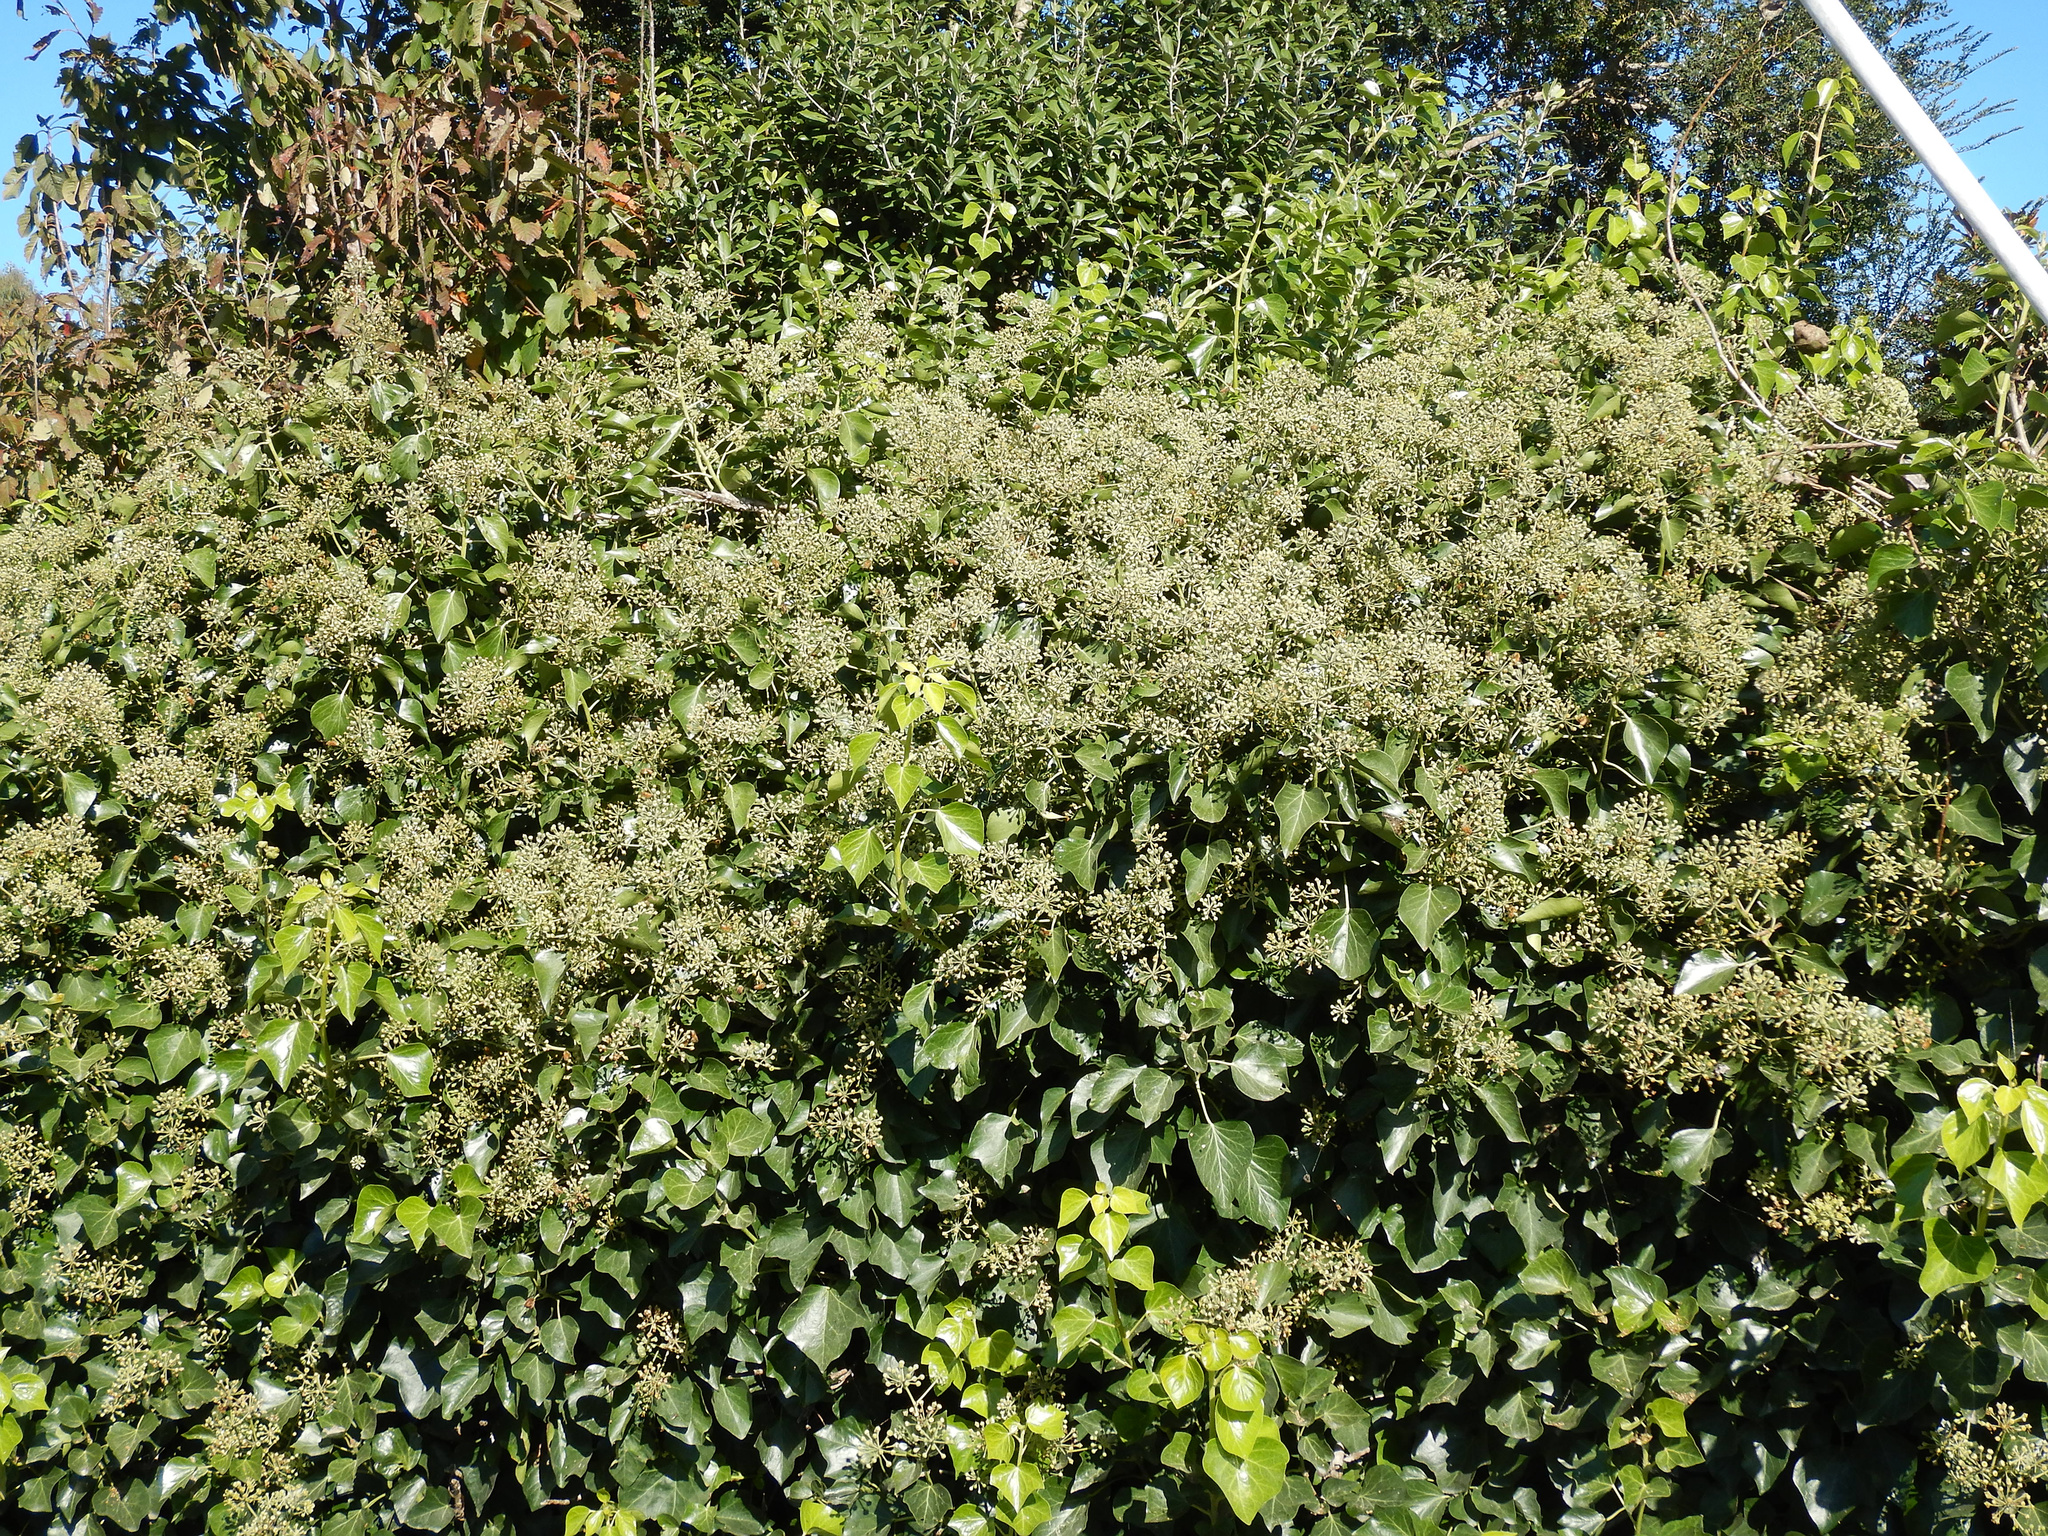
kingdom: Plantae
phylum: Tracheophyta
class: Magnoliopsida
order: Apiales
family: Araliaceae
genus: Hedera
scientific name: Hedera helix
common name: Ivy
